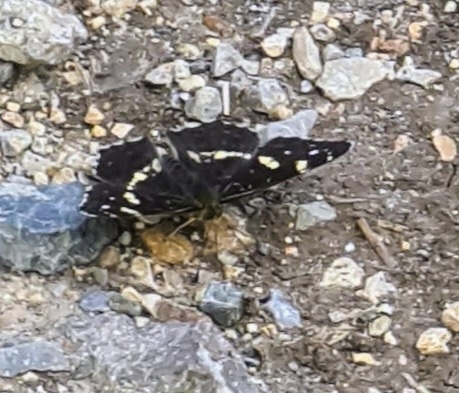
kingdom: Animalia
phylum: Arthropoda
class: Insecta
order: Lepidoptera
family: Nymphalidae
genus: Araschnia
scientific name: Araschnia levana
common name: Map butterfly
